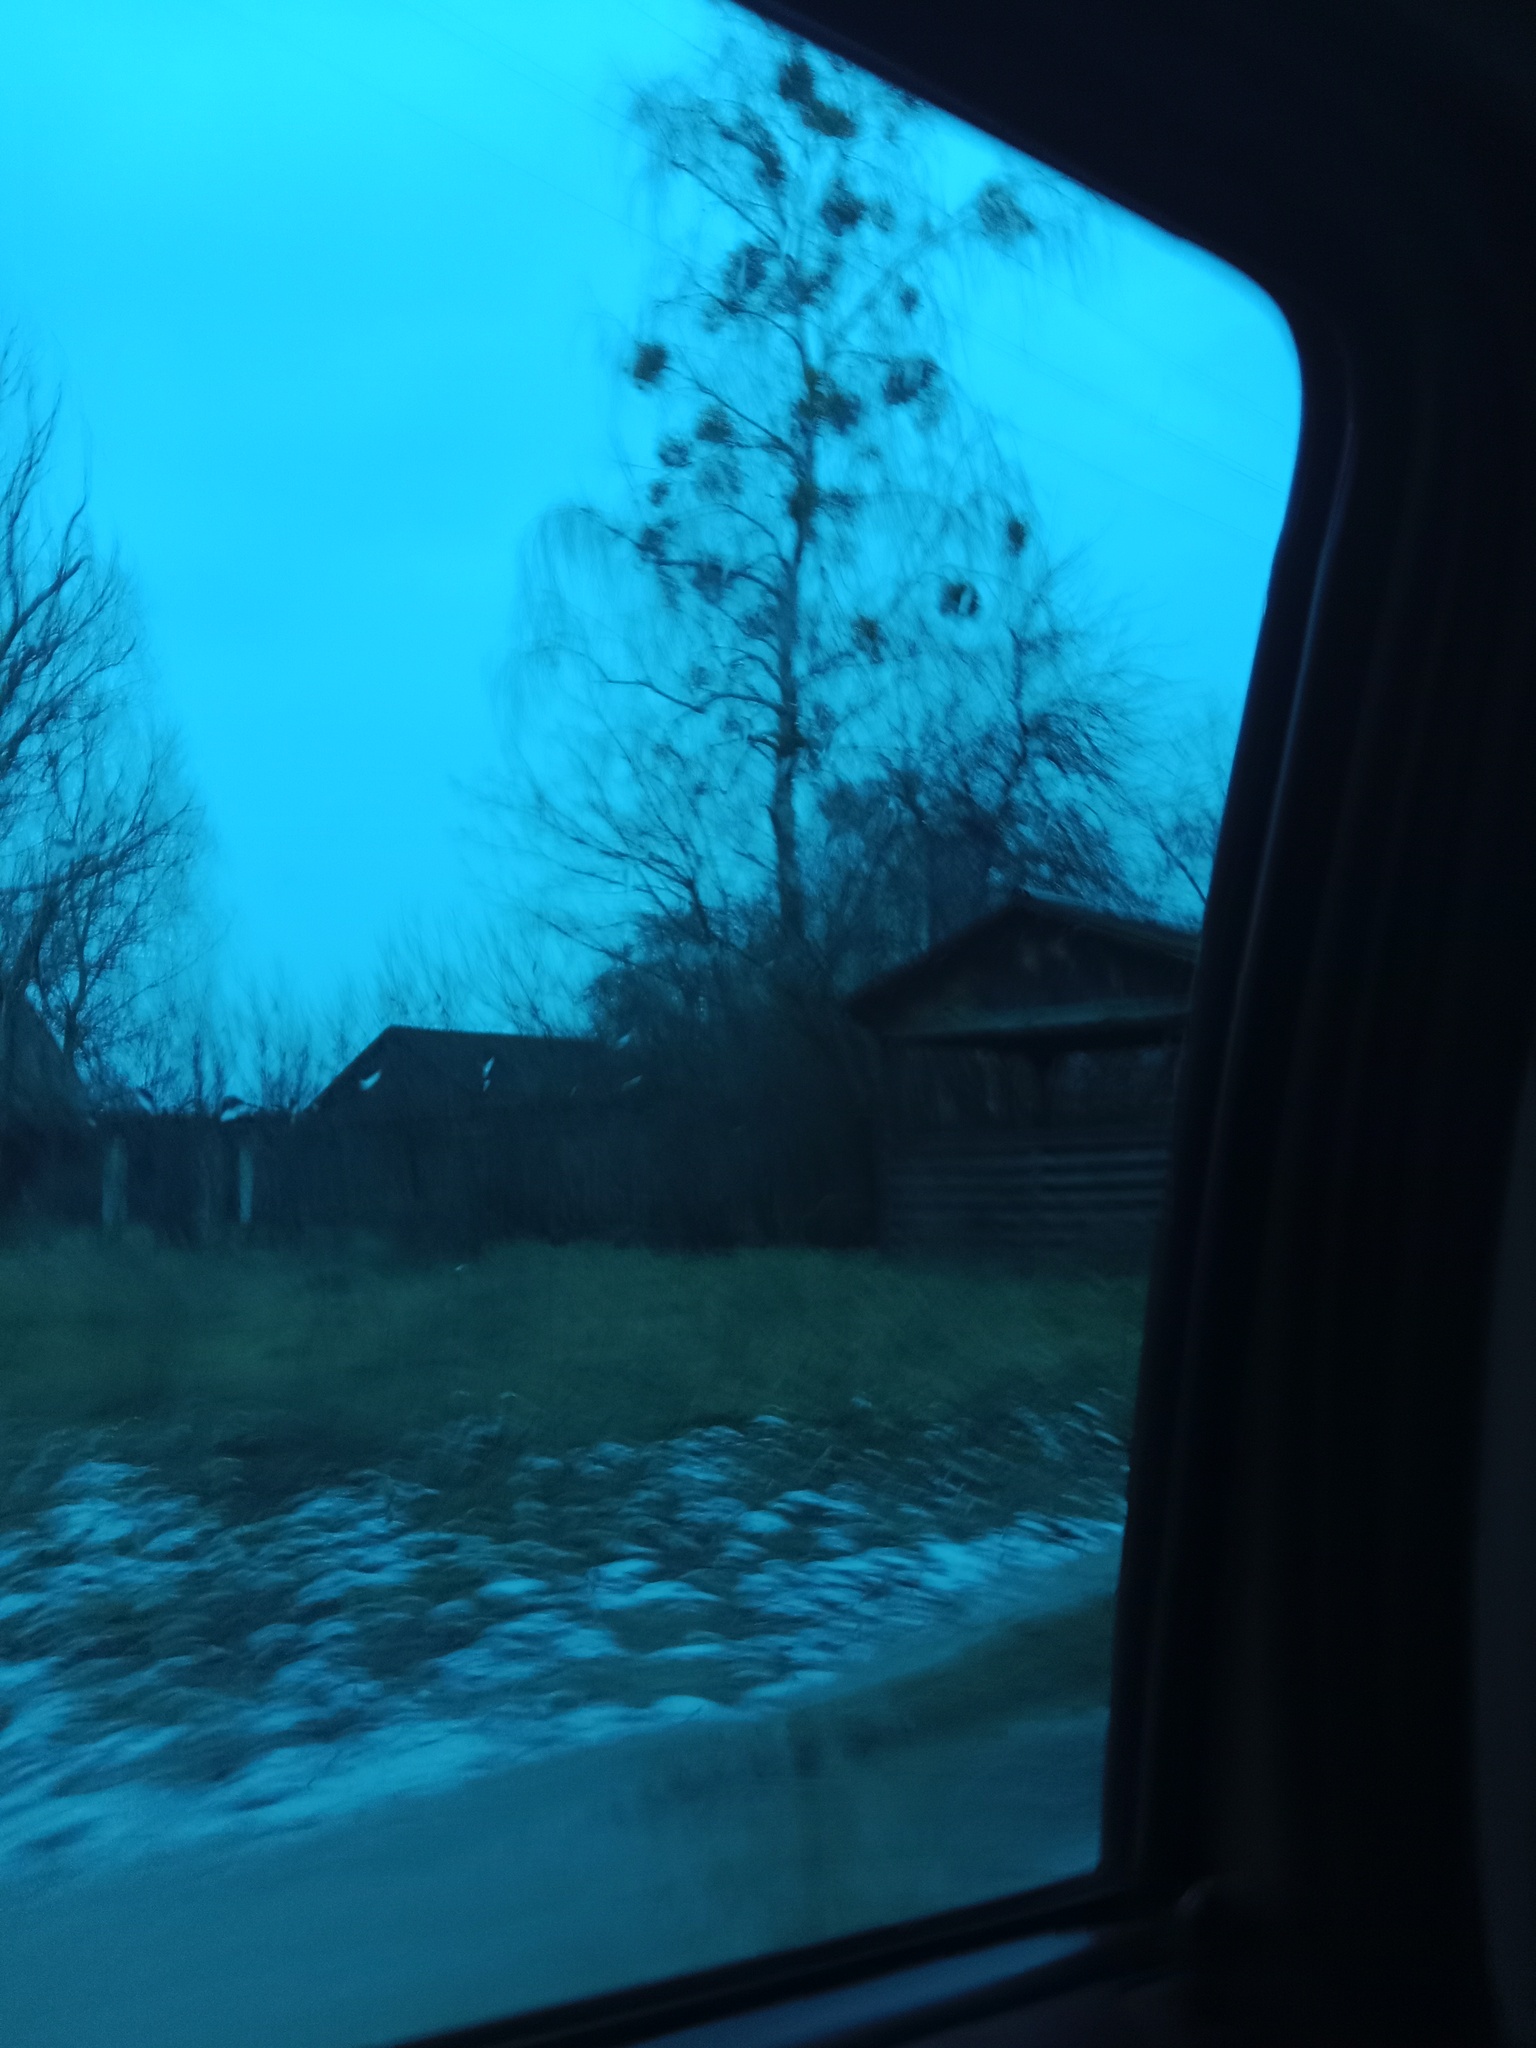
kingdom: Plantae
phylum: Tracheophyta
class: Magnoliopsida
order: Santalales
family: Viscaceae
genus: Viscum
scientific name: Viscum album
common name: Mistletoe
